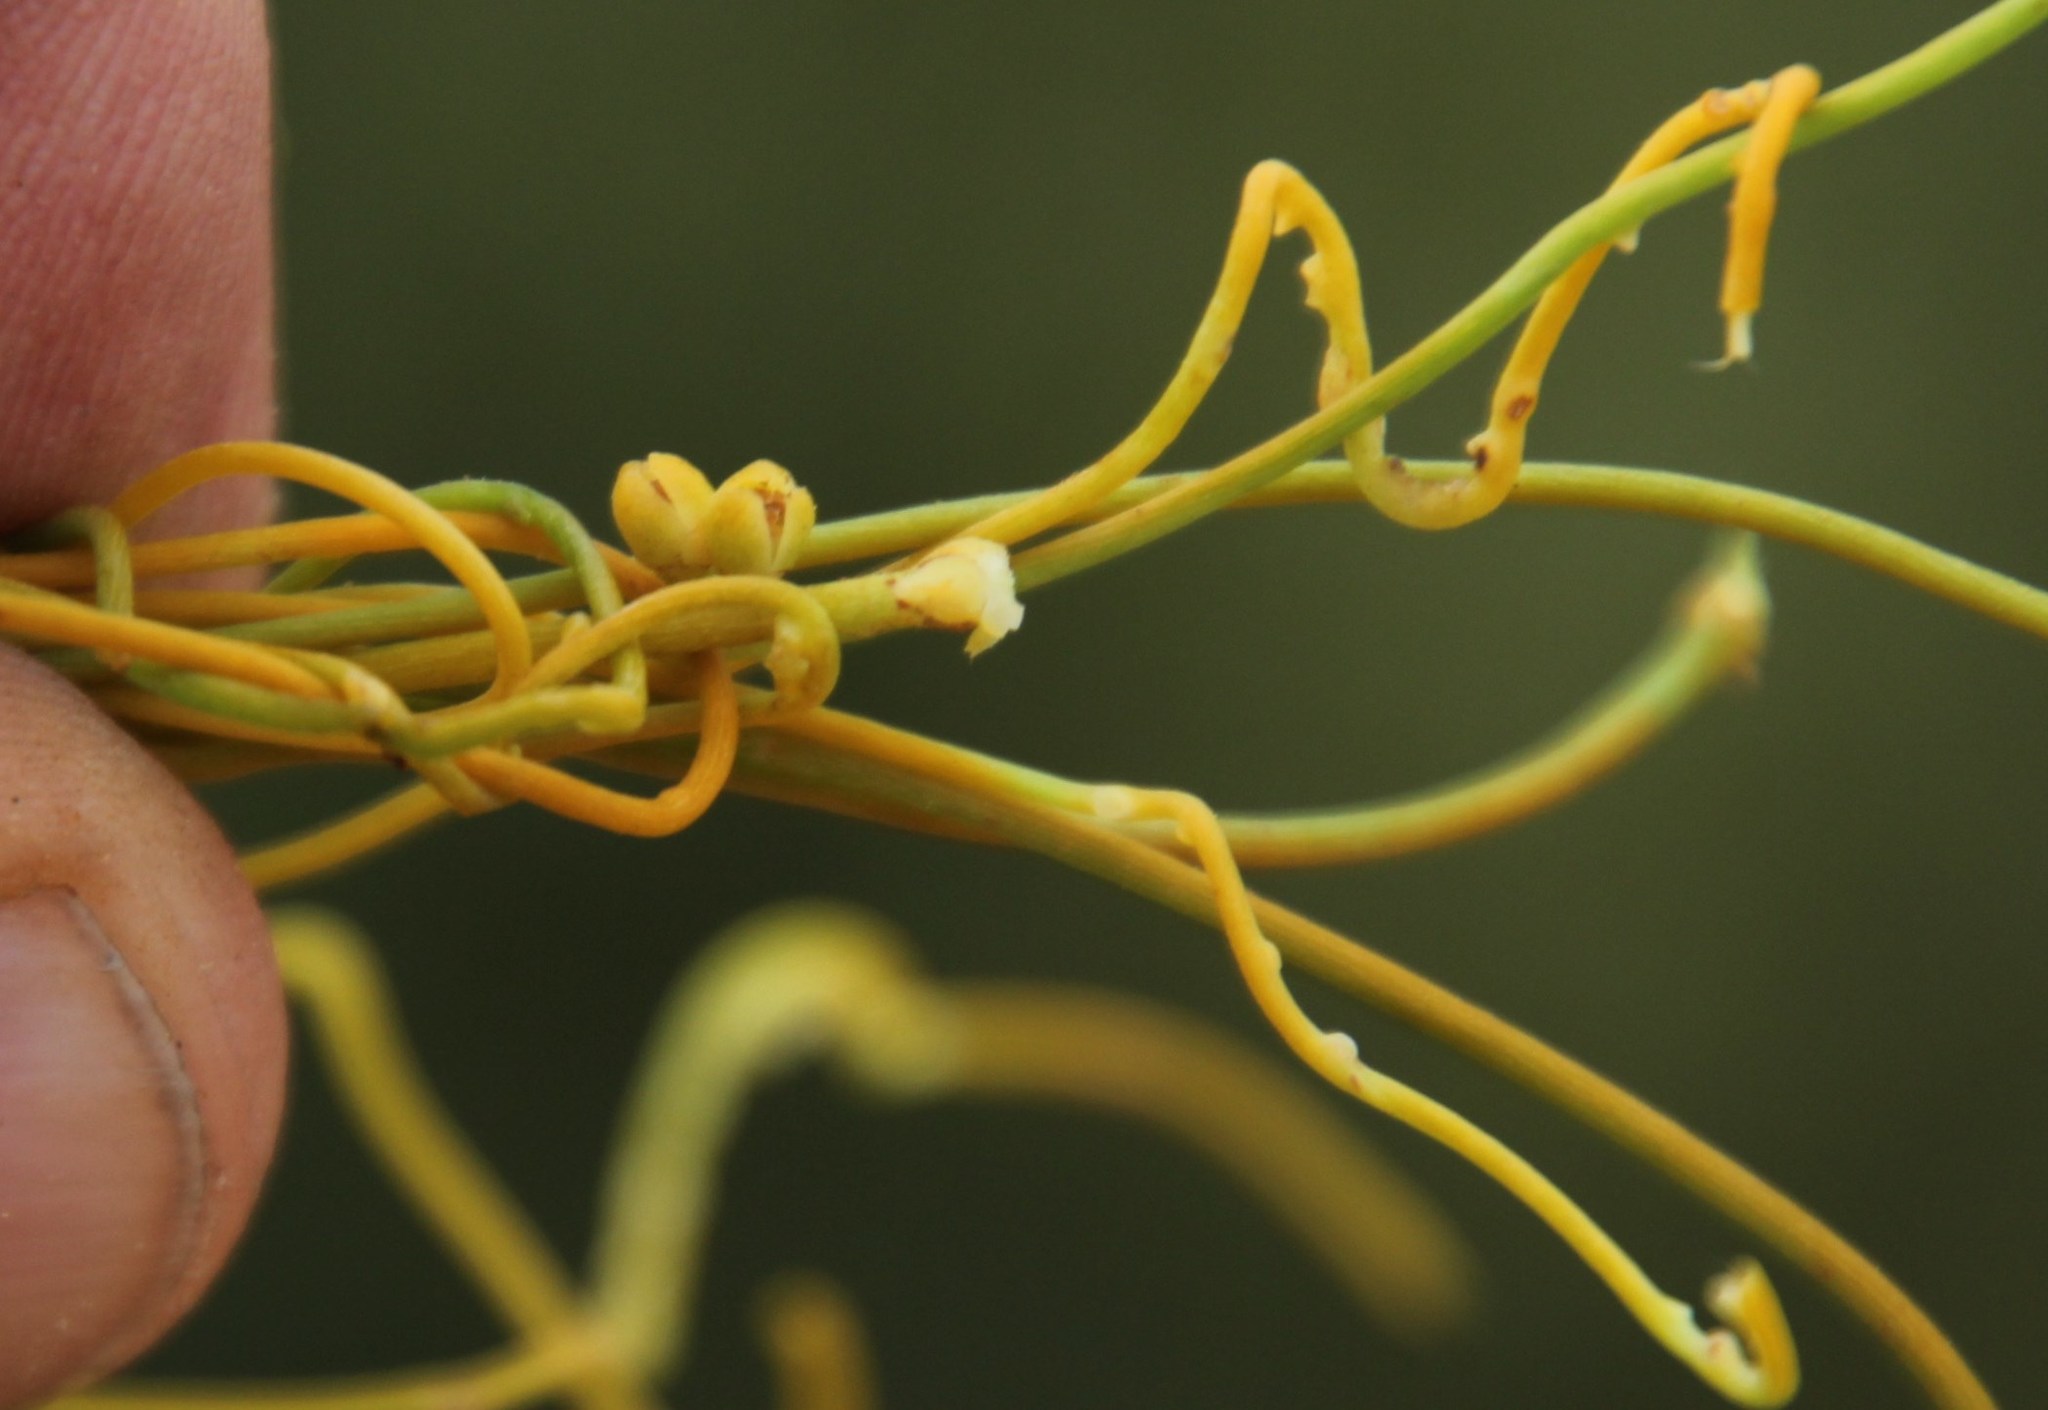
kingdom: Plantae
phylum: Tracheophyta
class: Magnoliopsida
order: Laurales
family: Lauraceae
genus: Cassytha
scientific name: Cassytha ciliolata
